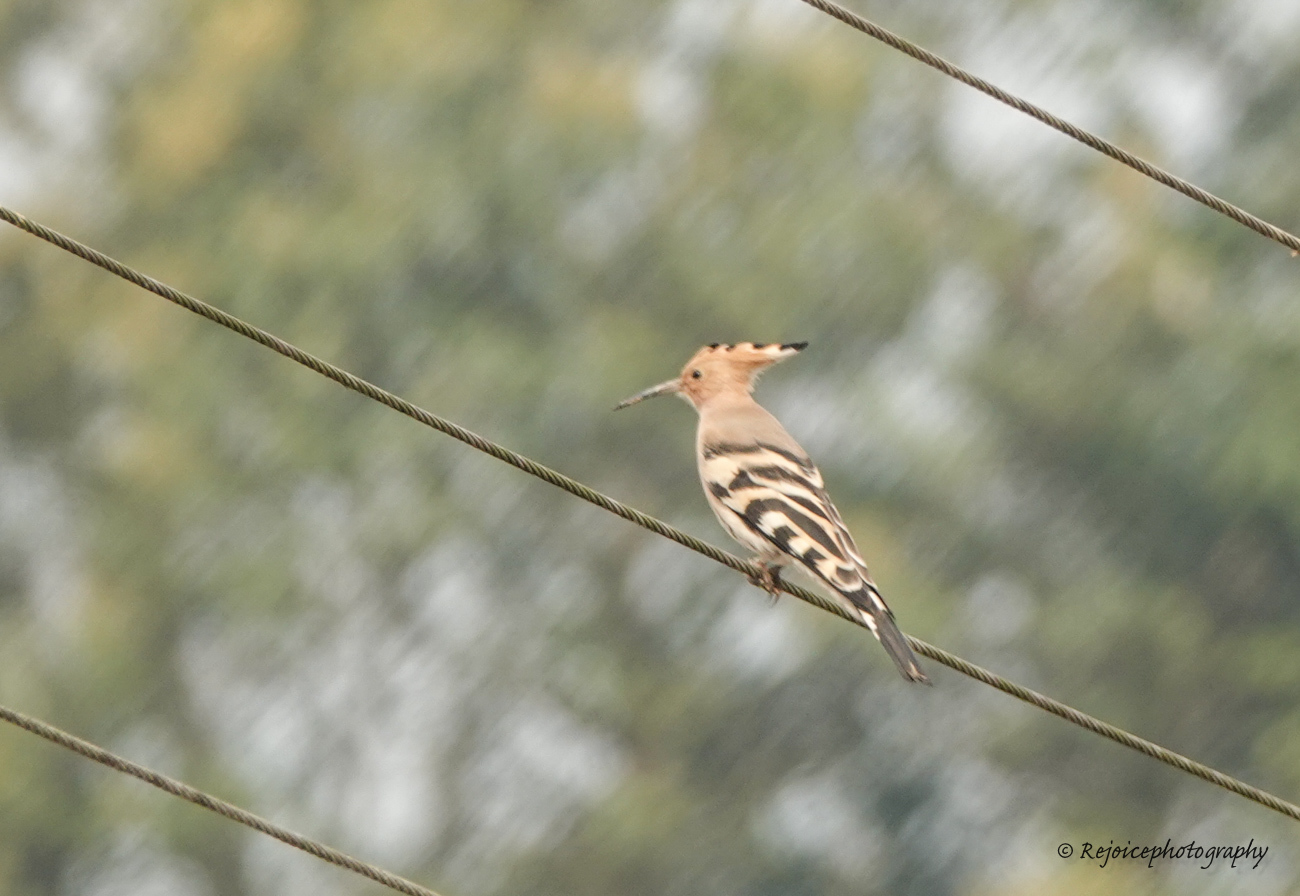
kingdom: Animalia
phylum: Chordata
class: Aves
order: Bucerotiformes
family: Upupidae
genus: Upupa
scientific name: Upupa epops
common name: Eurasian hoopoe
